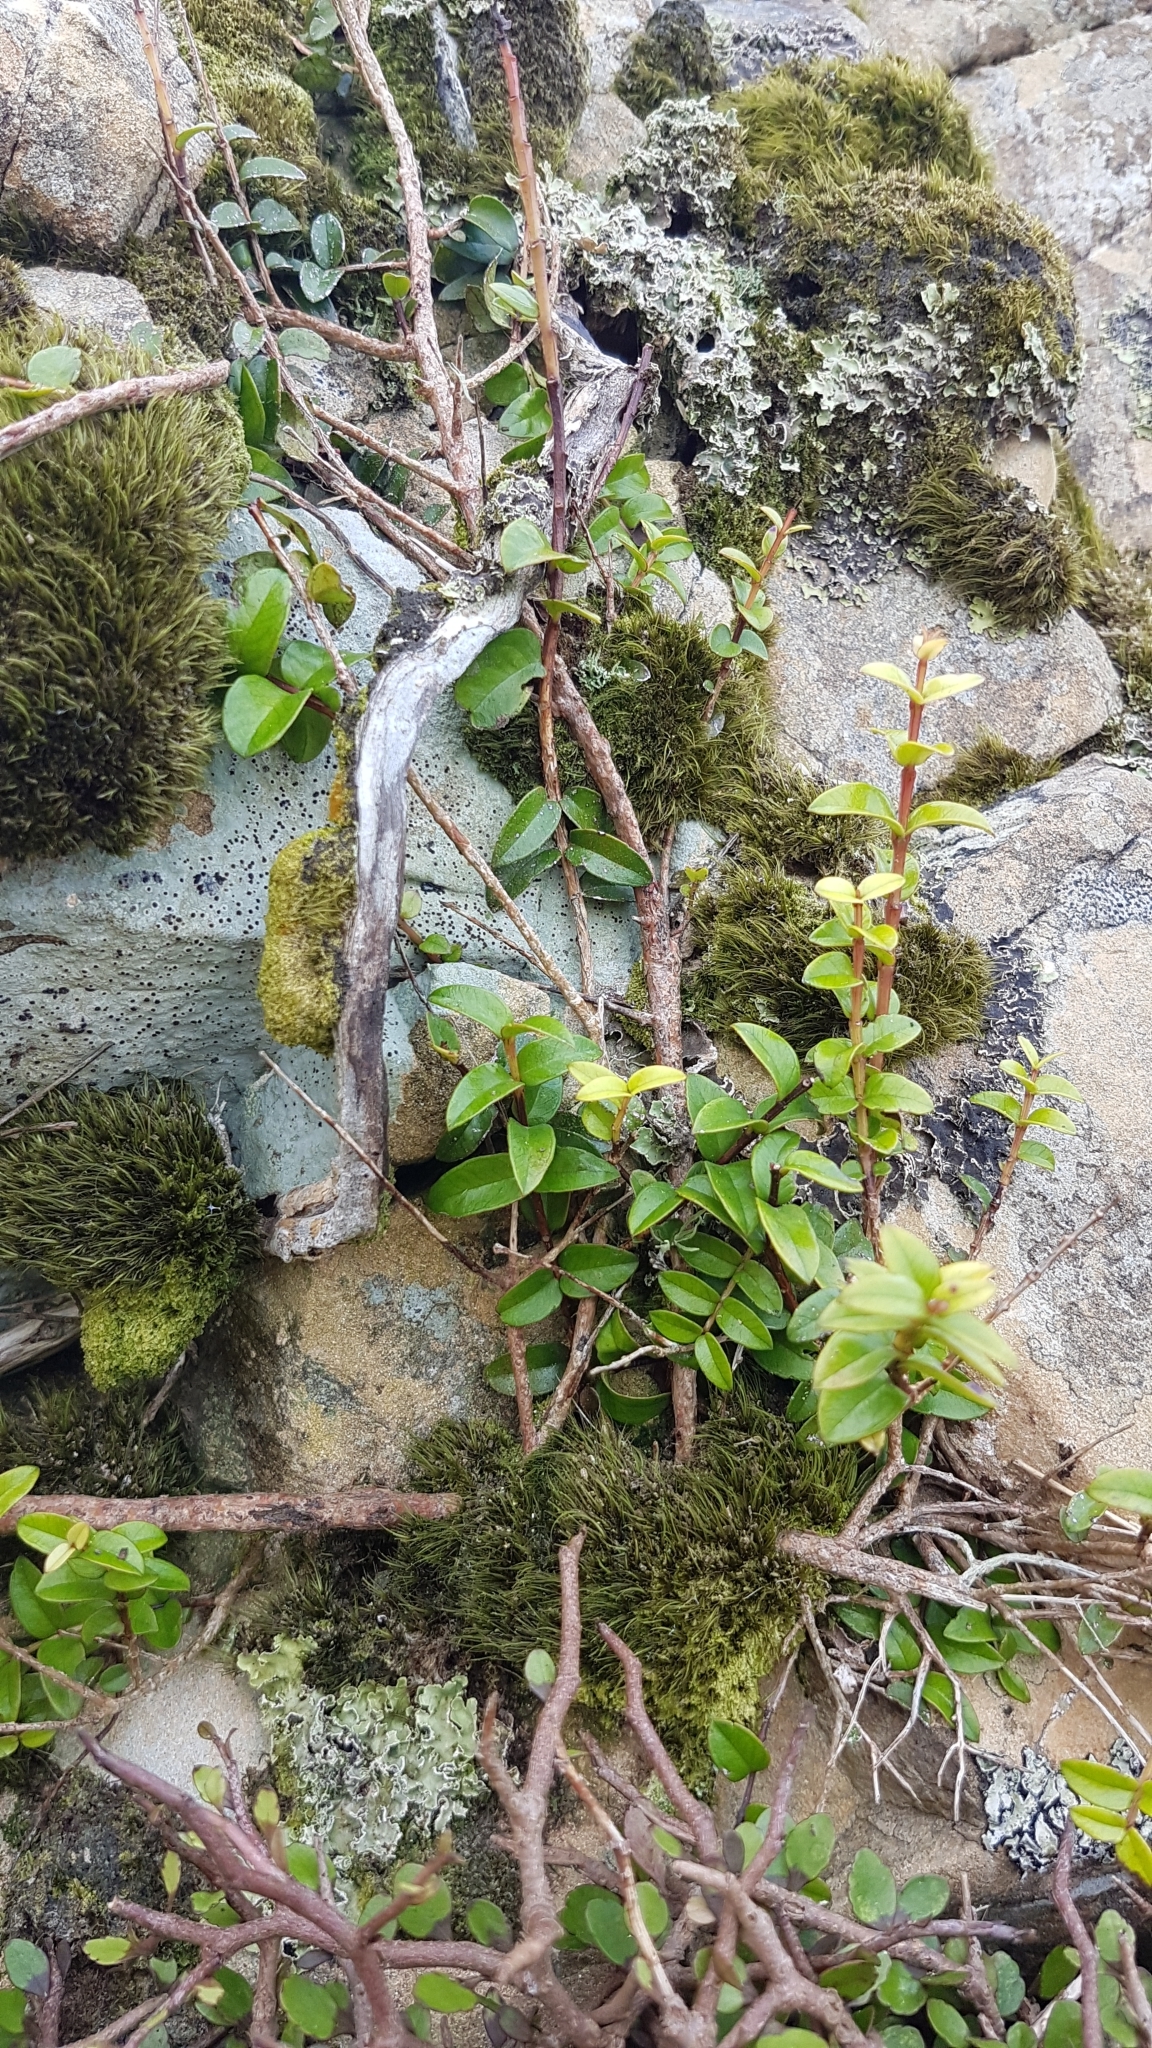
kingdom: Plantae
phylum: Tracheophyta
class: Magnoliopsida
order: Myrtales
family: Myrtaceae
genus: Metrosideros
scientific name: Metrosideros diffusa
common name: Small ratavine
